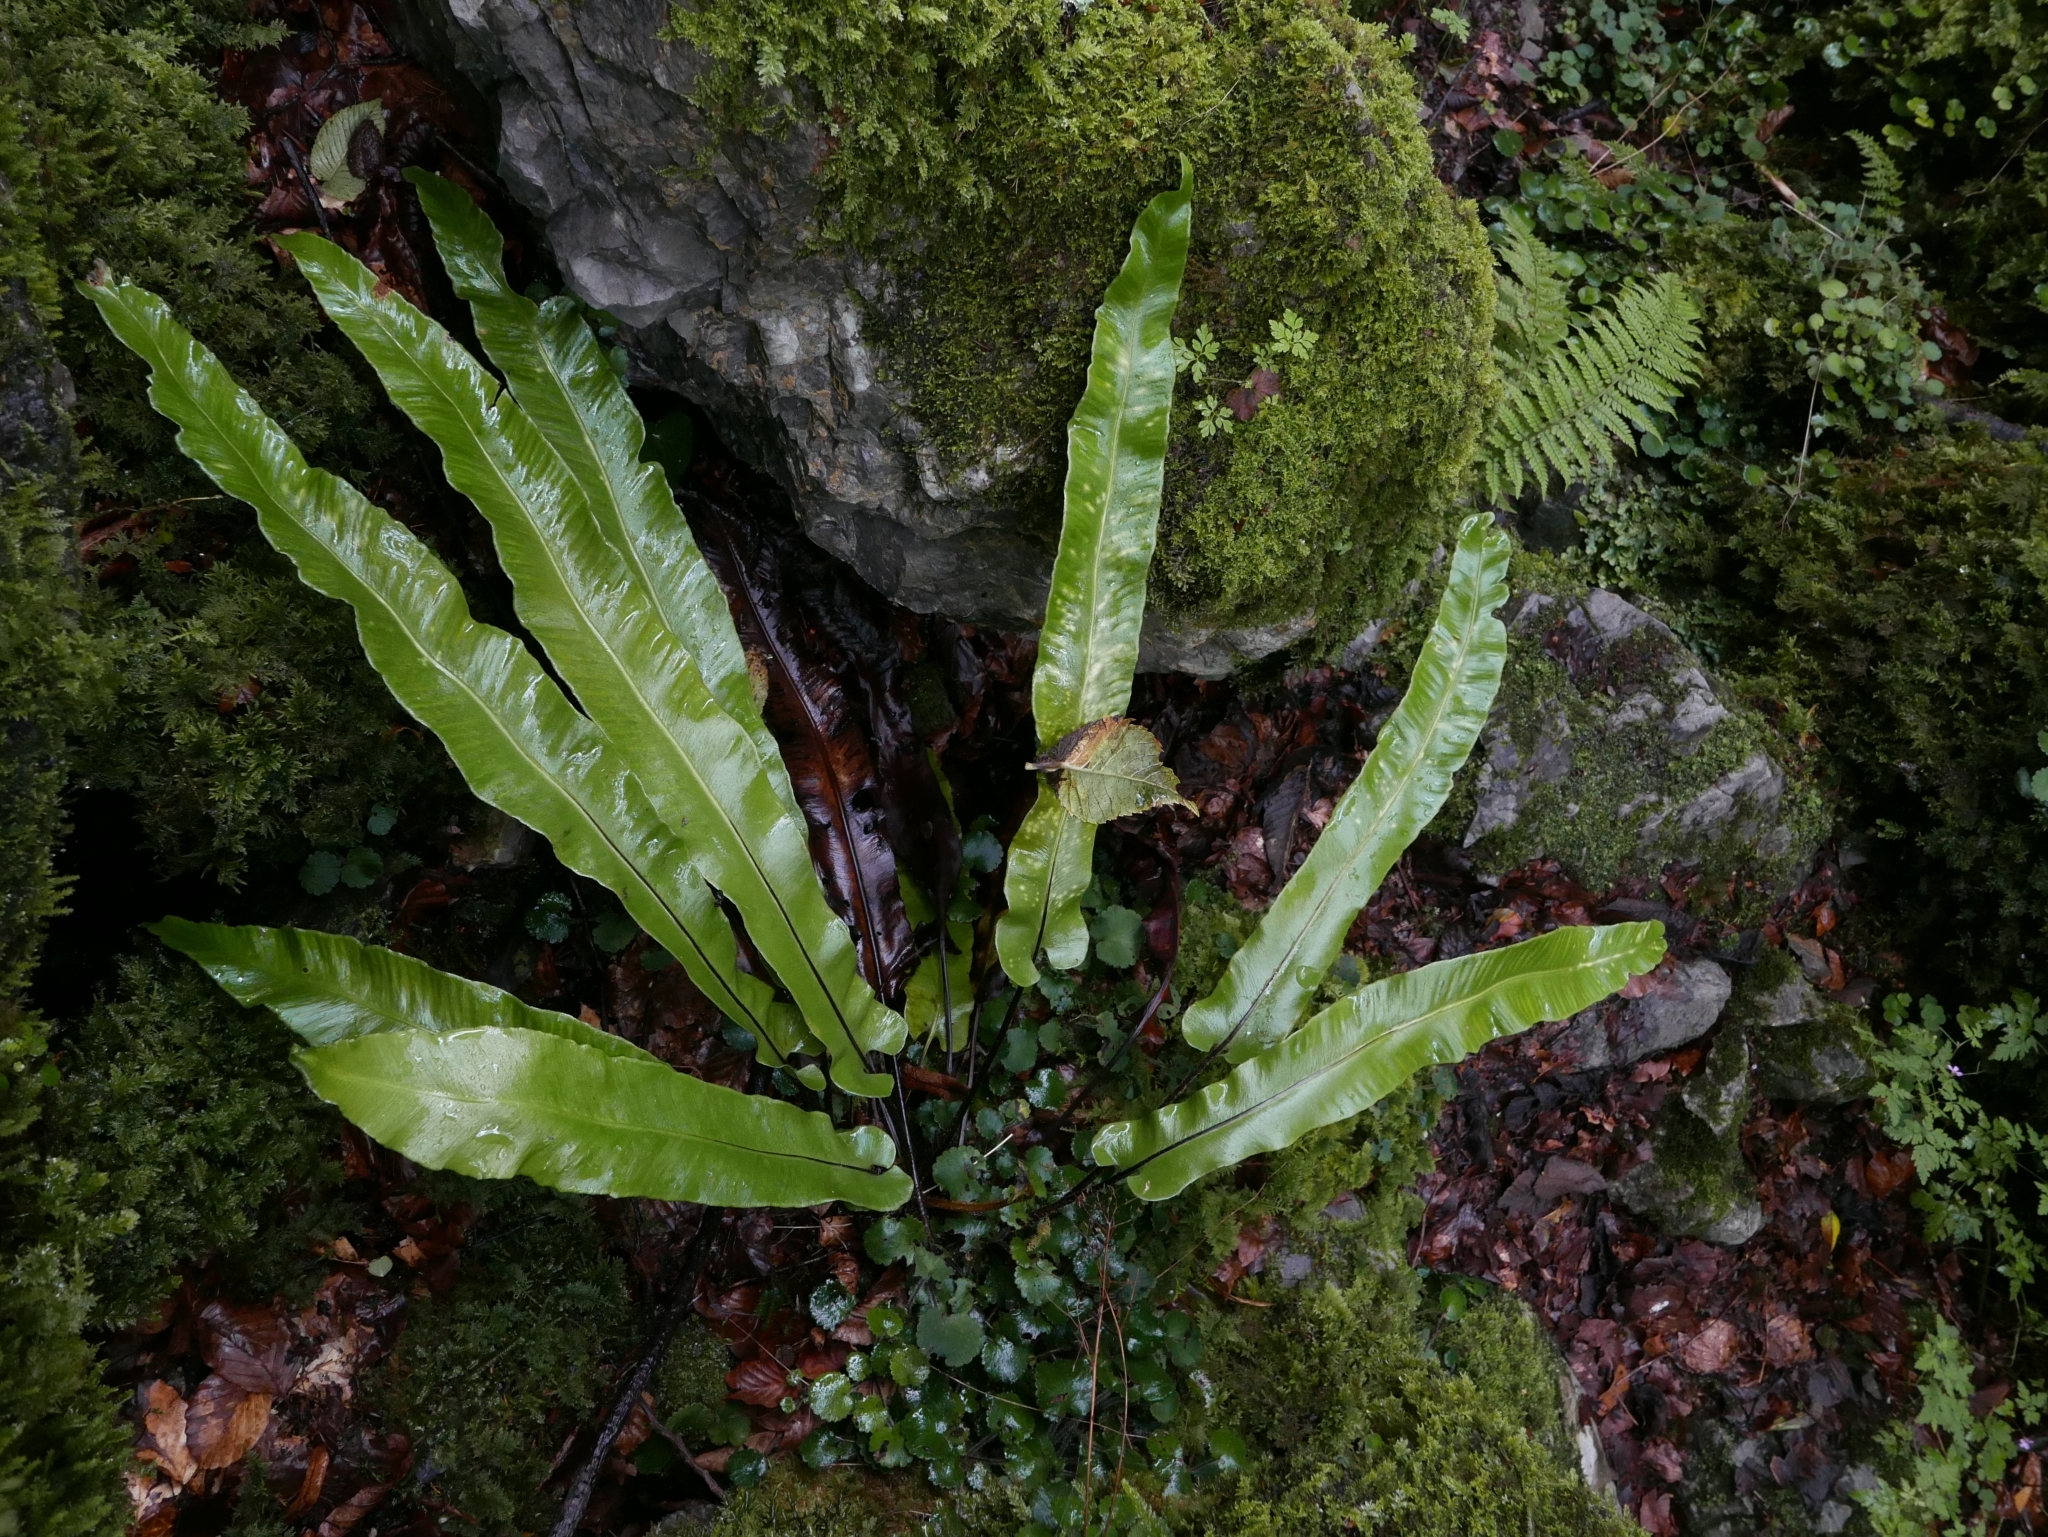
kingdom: Plantae
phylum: Tracheophyta
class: Polypodiopsida
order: Polypodiales
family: Aspleniaceae
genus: Asplenium
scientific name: Asplenium scolopendrium
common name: Hart's-tongue fern
